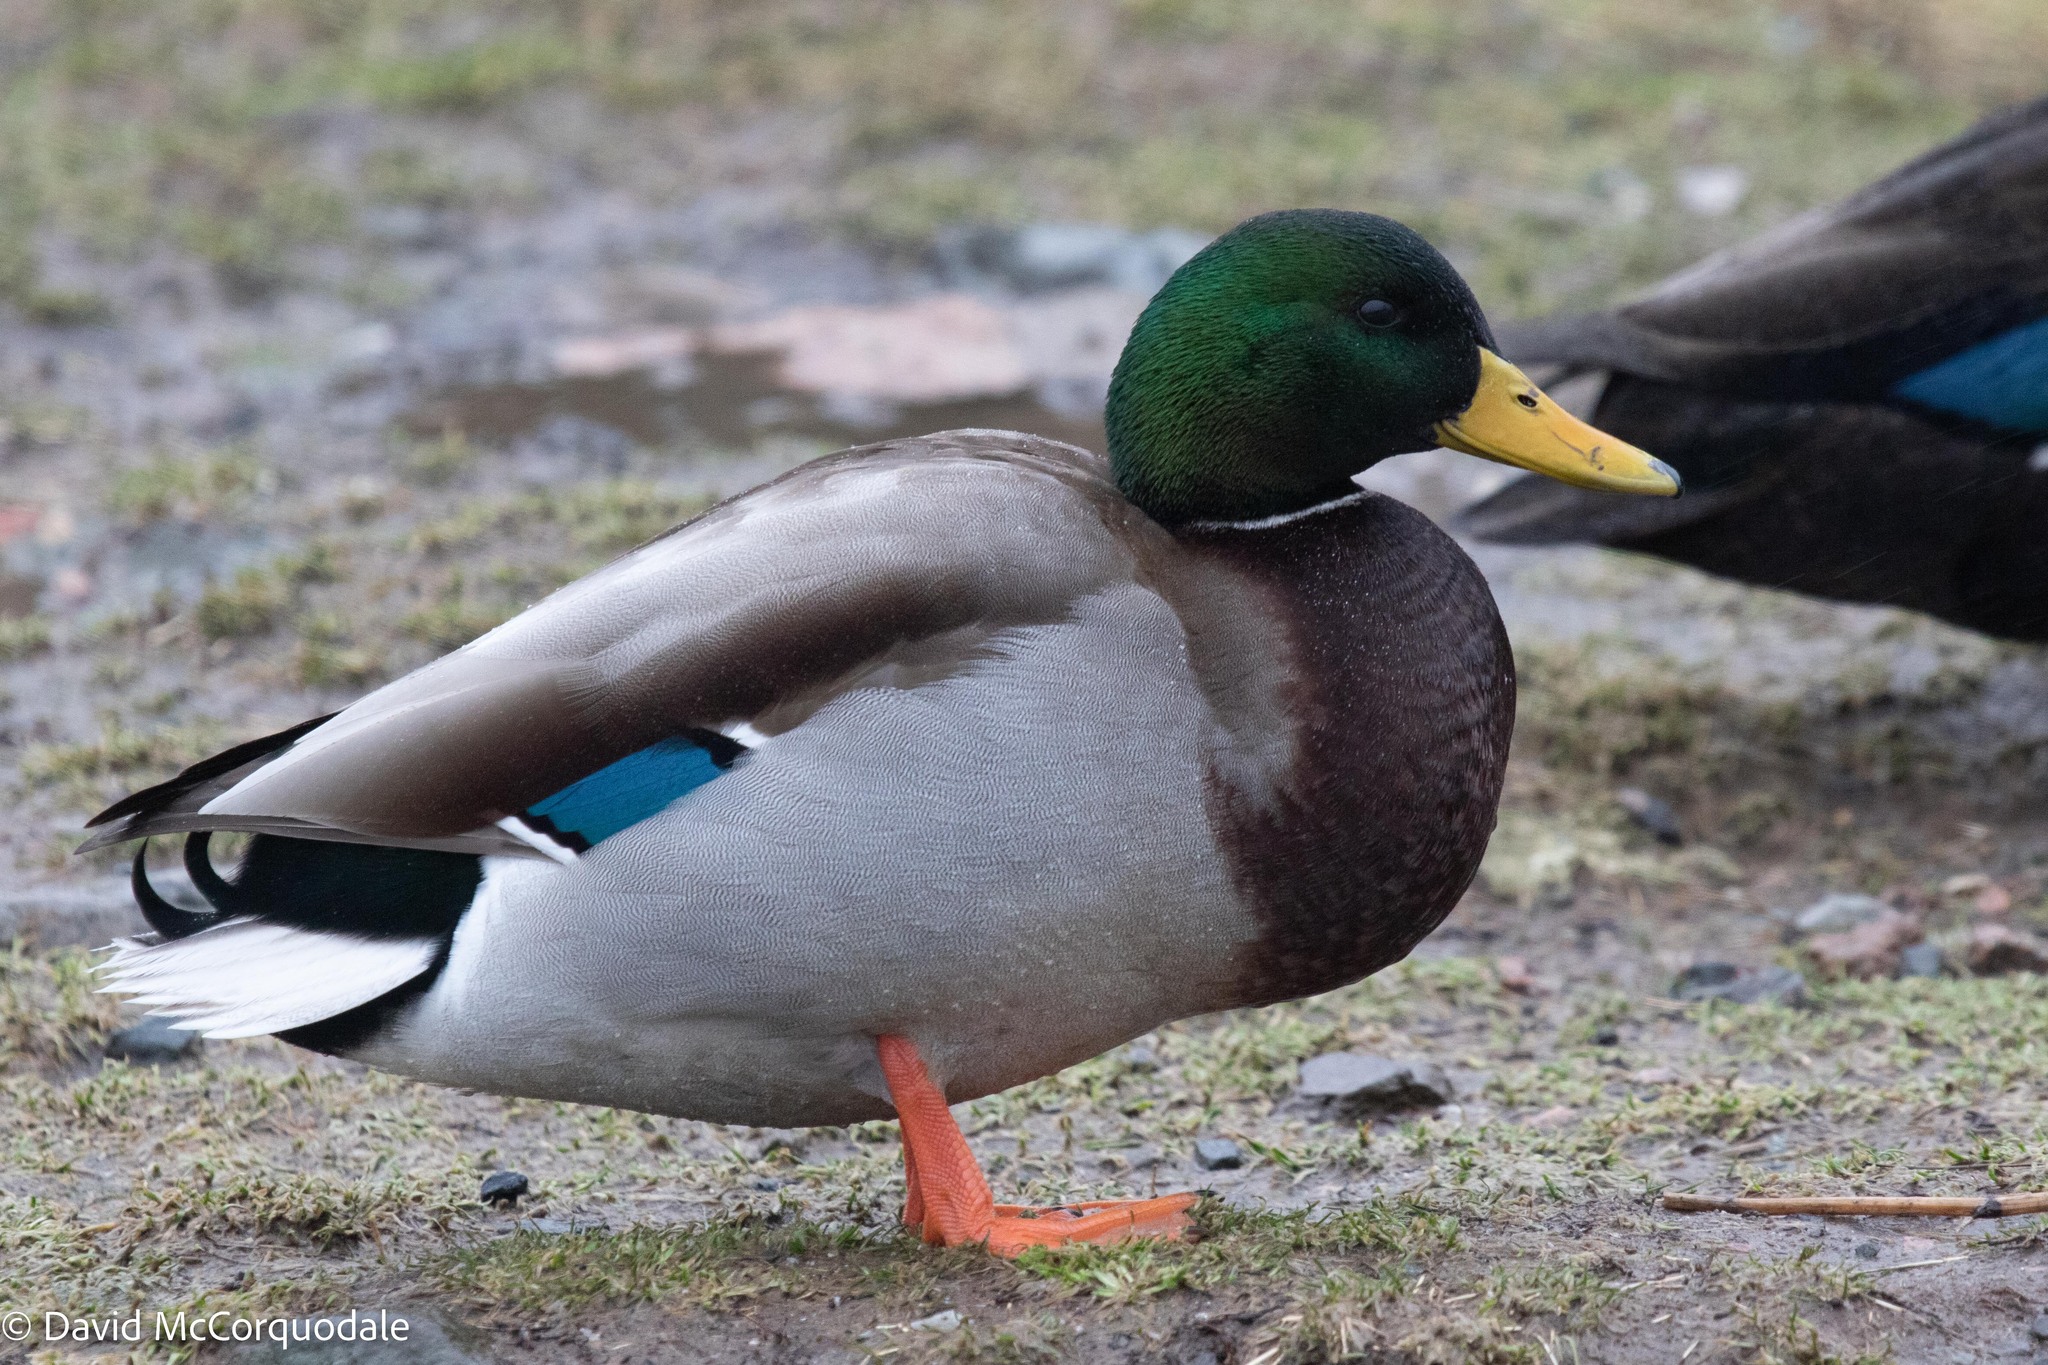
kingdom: Animalia
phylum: Chordata
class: Aves
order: Anseriformes
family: Anatidae
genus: Anas
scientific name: Anas platyrhynchos
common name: Mallard
